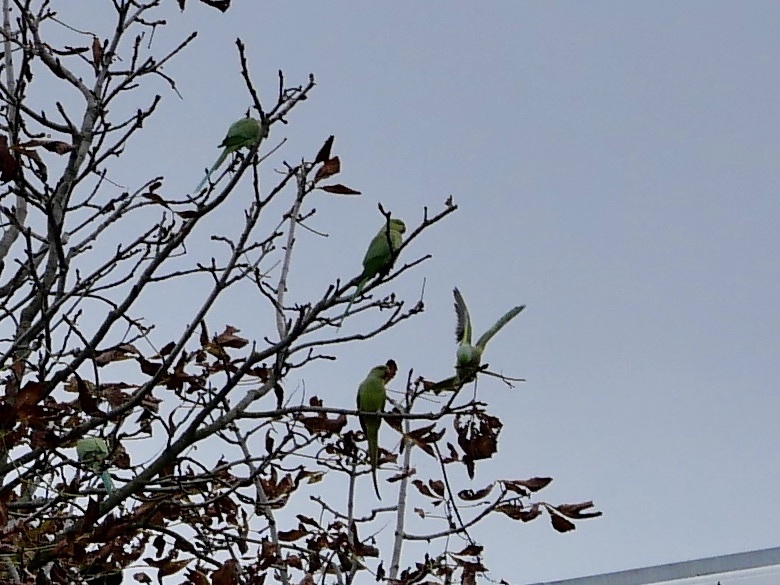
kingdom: Animalia
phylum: Chordata
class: Aves
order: Psittaciformes
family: Psittacidae
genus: Psittacula
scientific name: Psittacula krameri
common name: Rose-ringed parakeet
